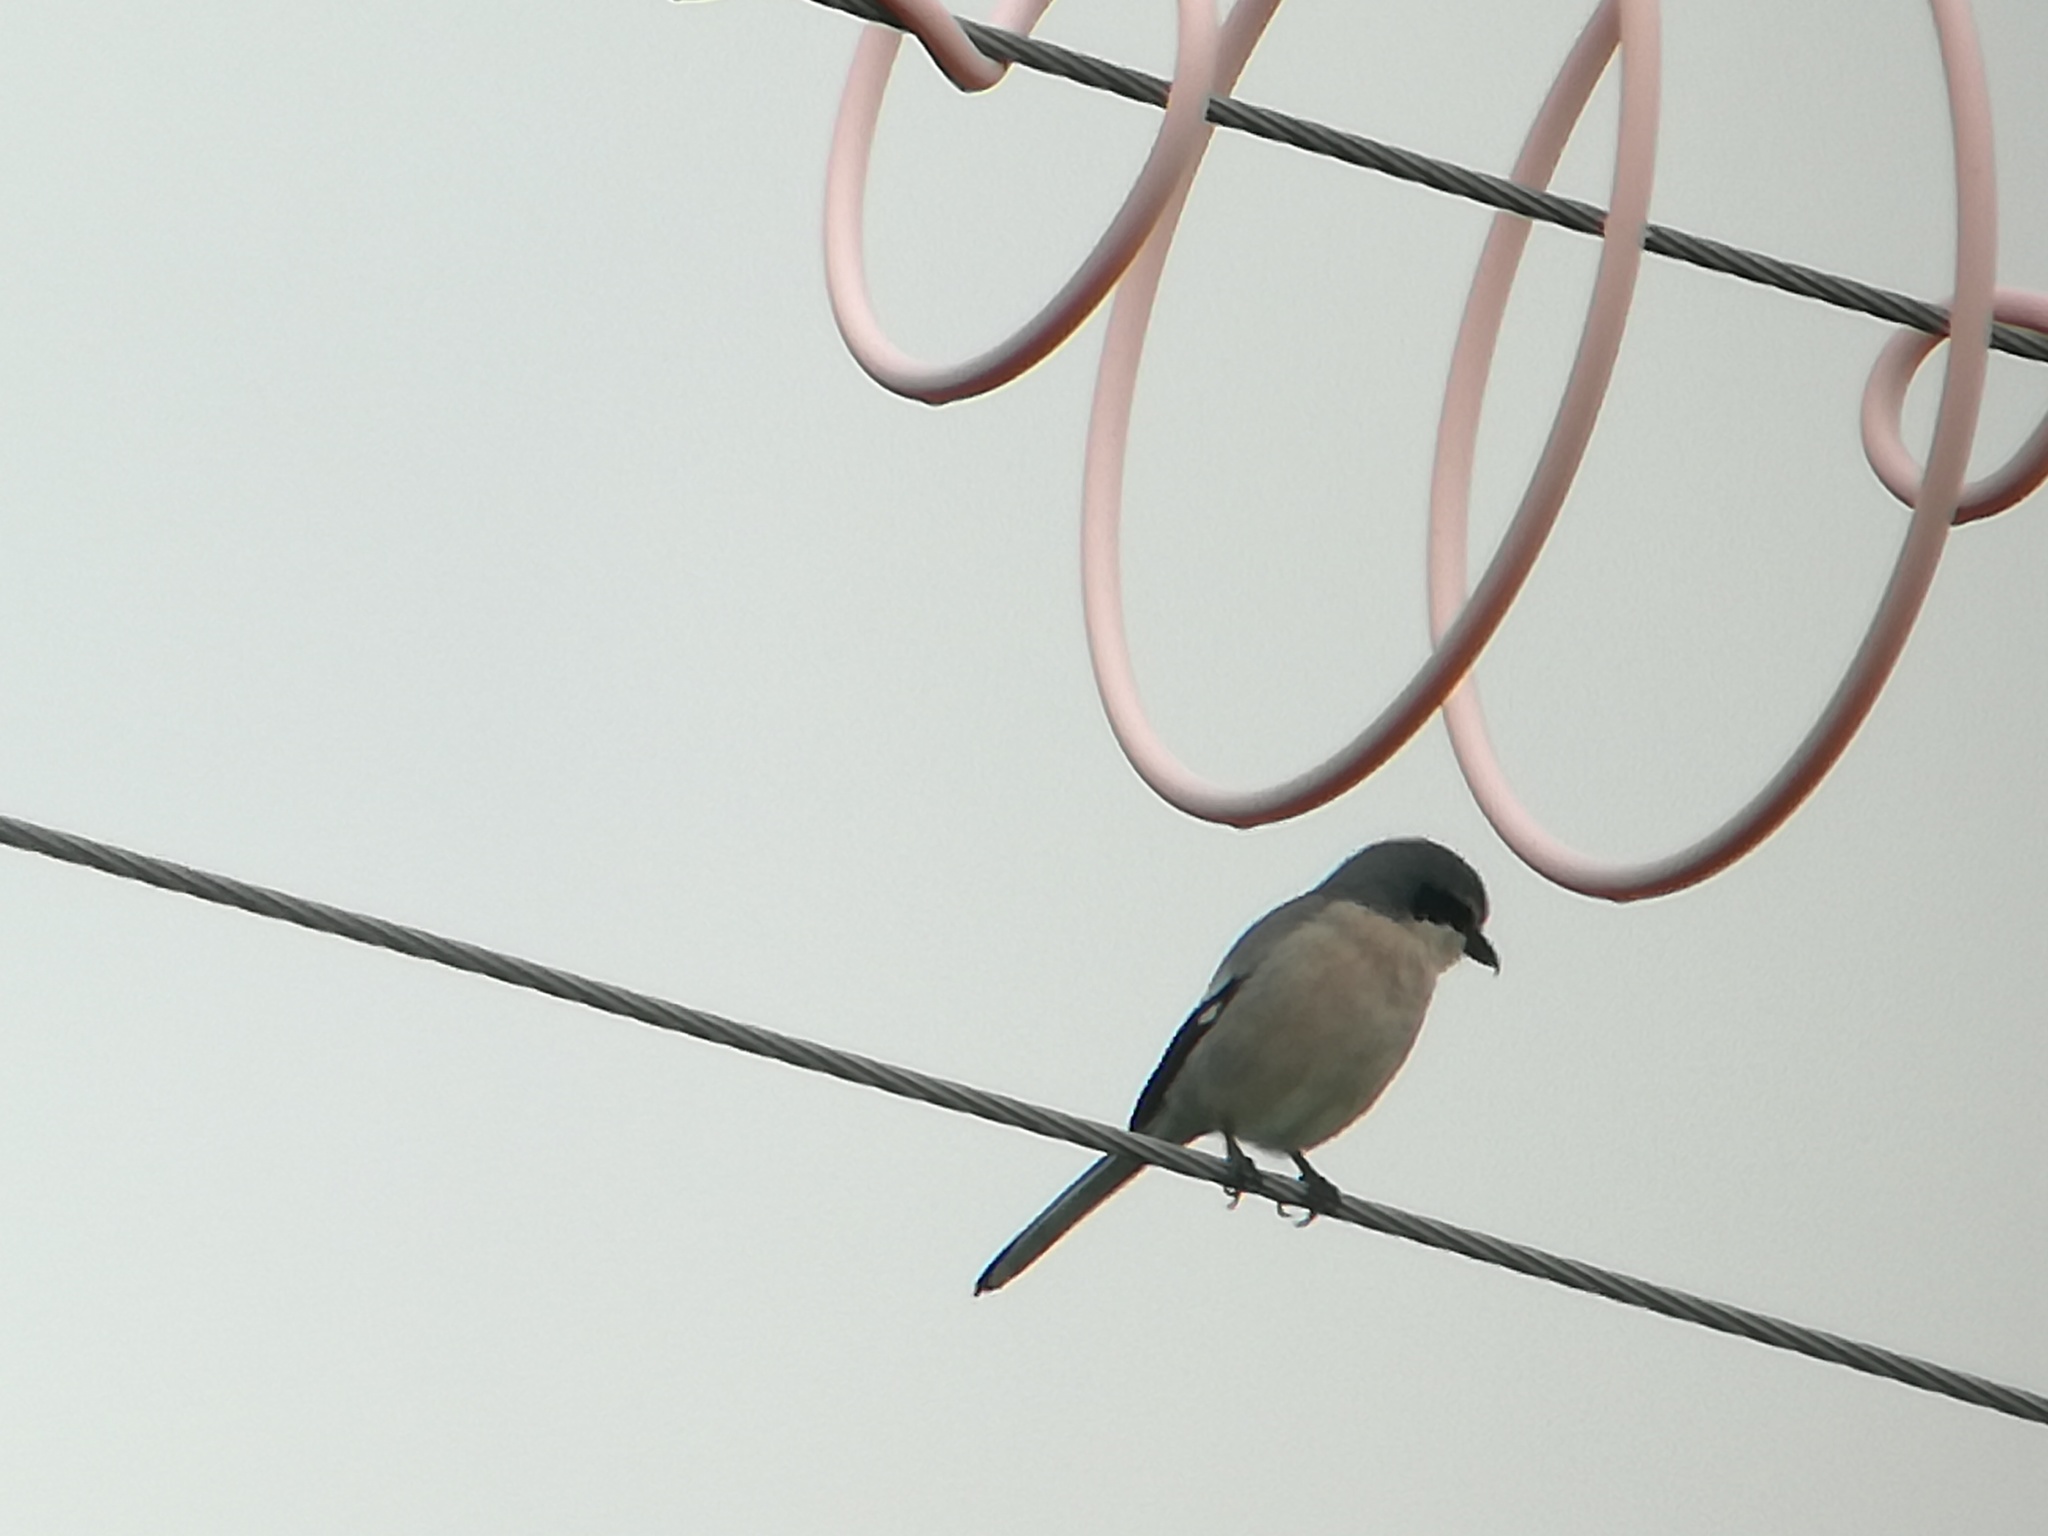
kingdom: Animalia
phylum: Chordata
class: Aves
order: Passeriformes
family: Laniidae
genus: Lanius
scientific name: Lanius meridionalis
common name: Iberian grey shrike
